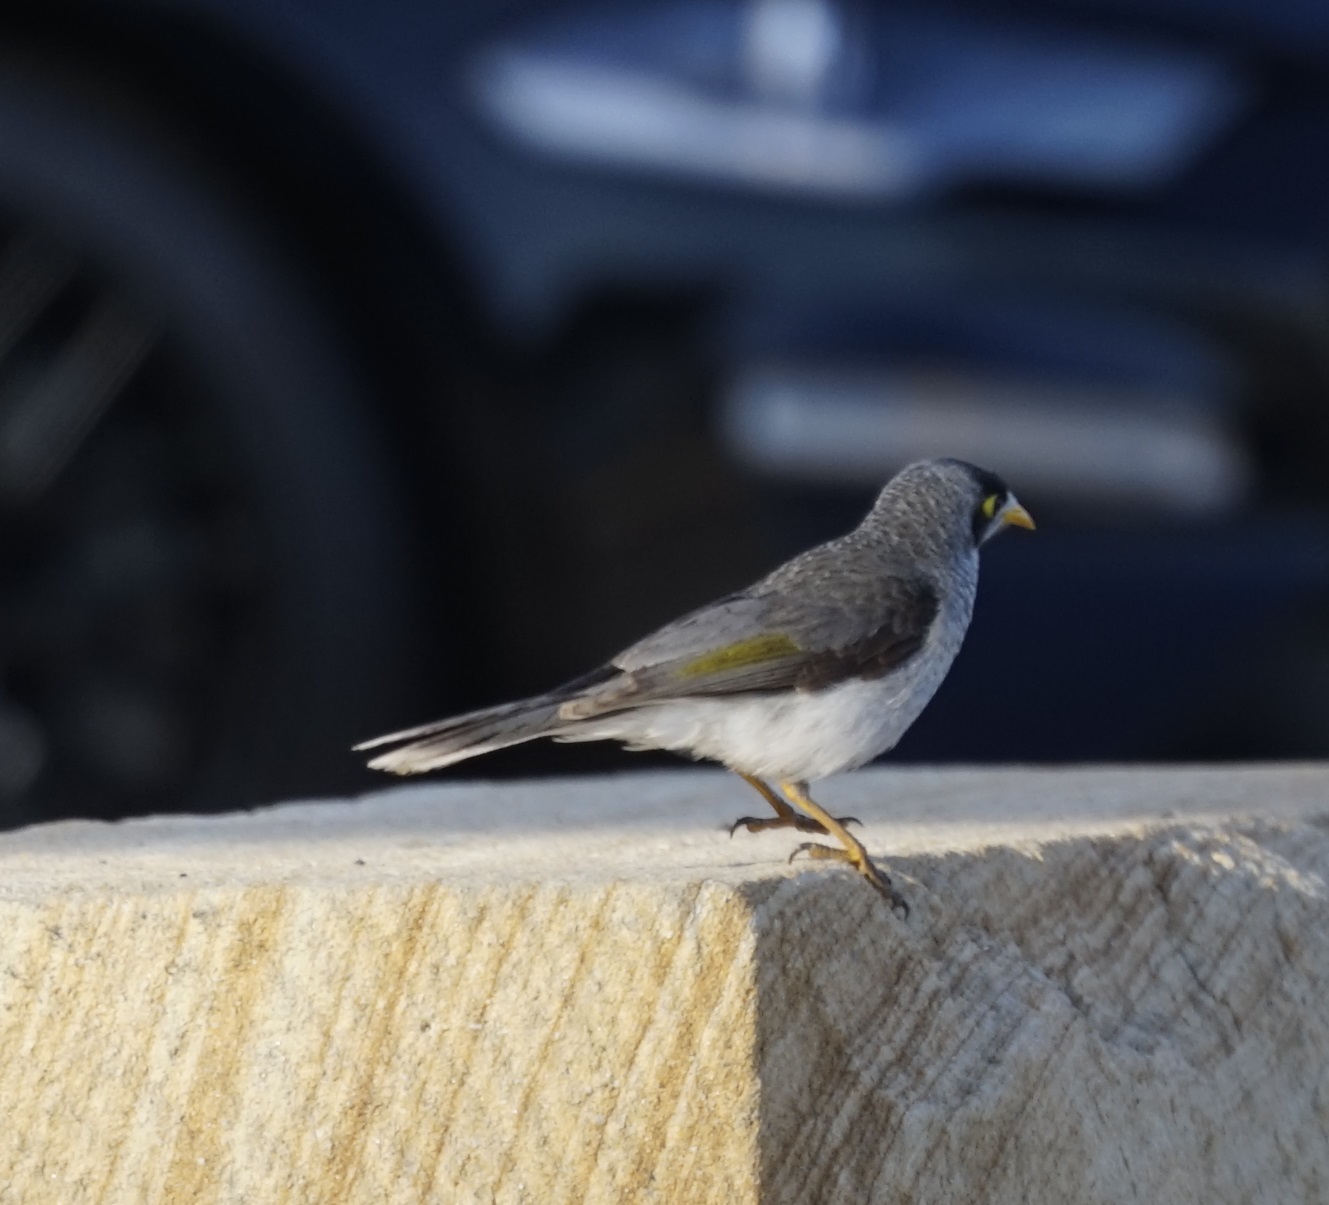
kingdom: Animalia
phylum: Chordata
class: Aves
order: Passeriformes
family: Meliphagidae
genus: Manorina
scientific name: Manorina melanocephala
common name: Noisy miner
